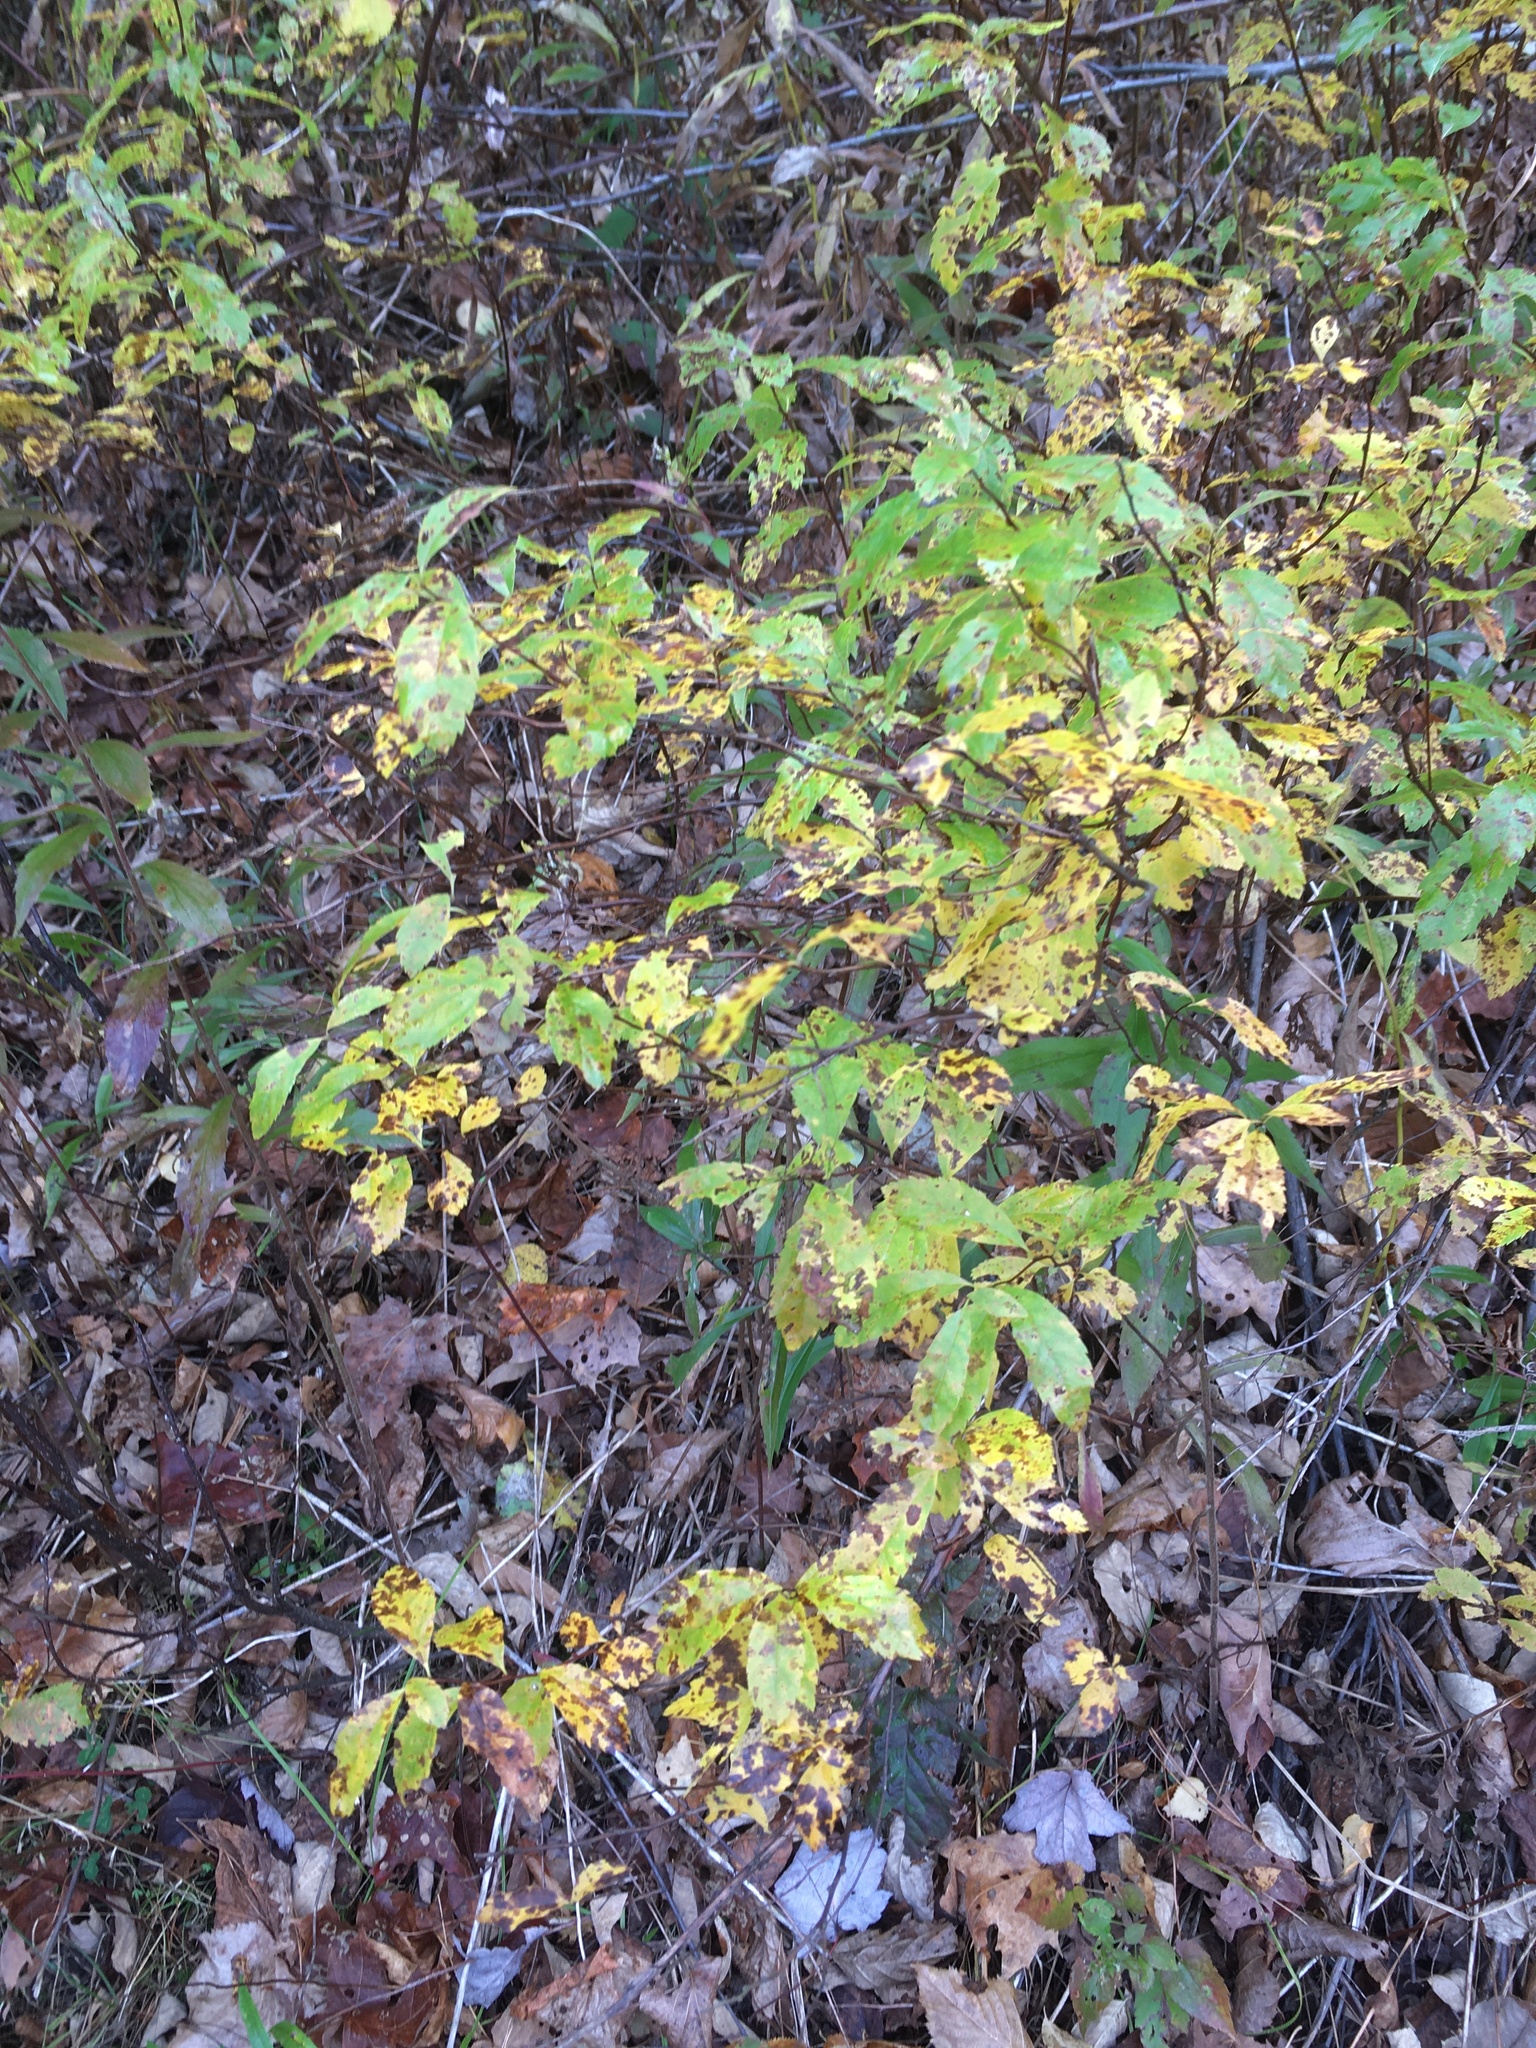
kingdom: Plantae
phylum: Tracheophyta
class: Magnoliopsida
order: Rosales
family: Rosaceae
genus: Spiraea
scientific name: Spiraea alba
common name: Pale bridewort
